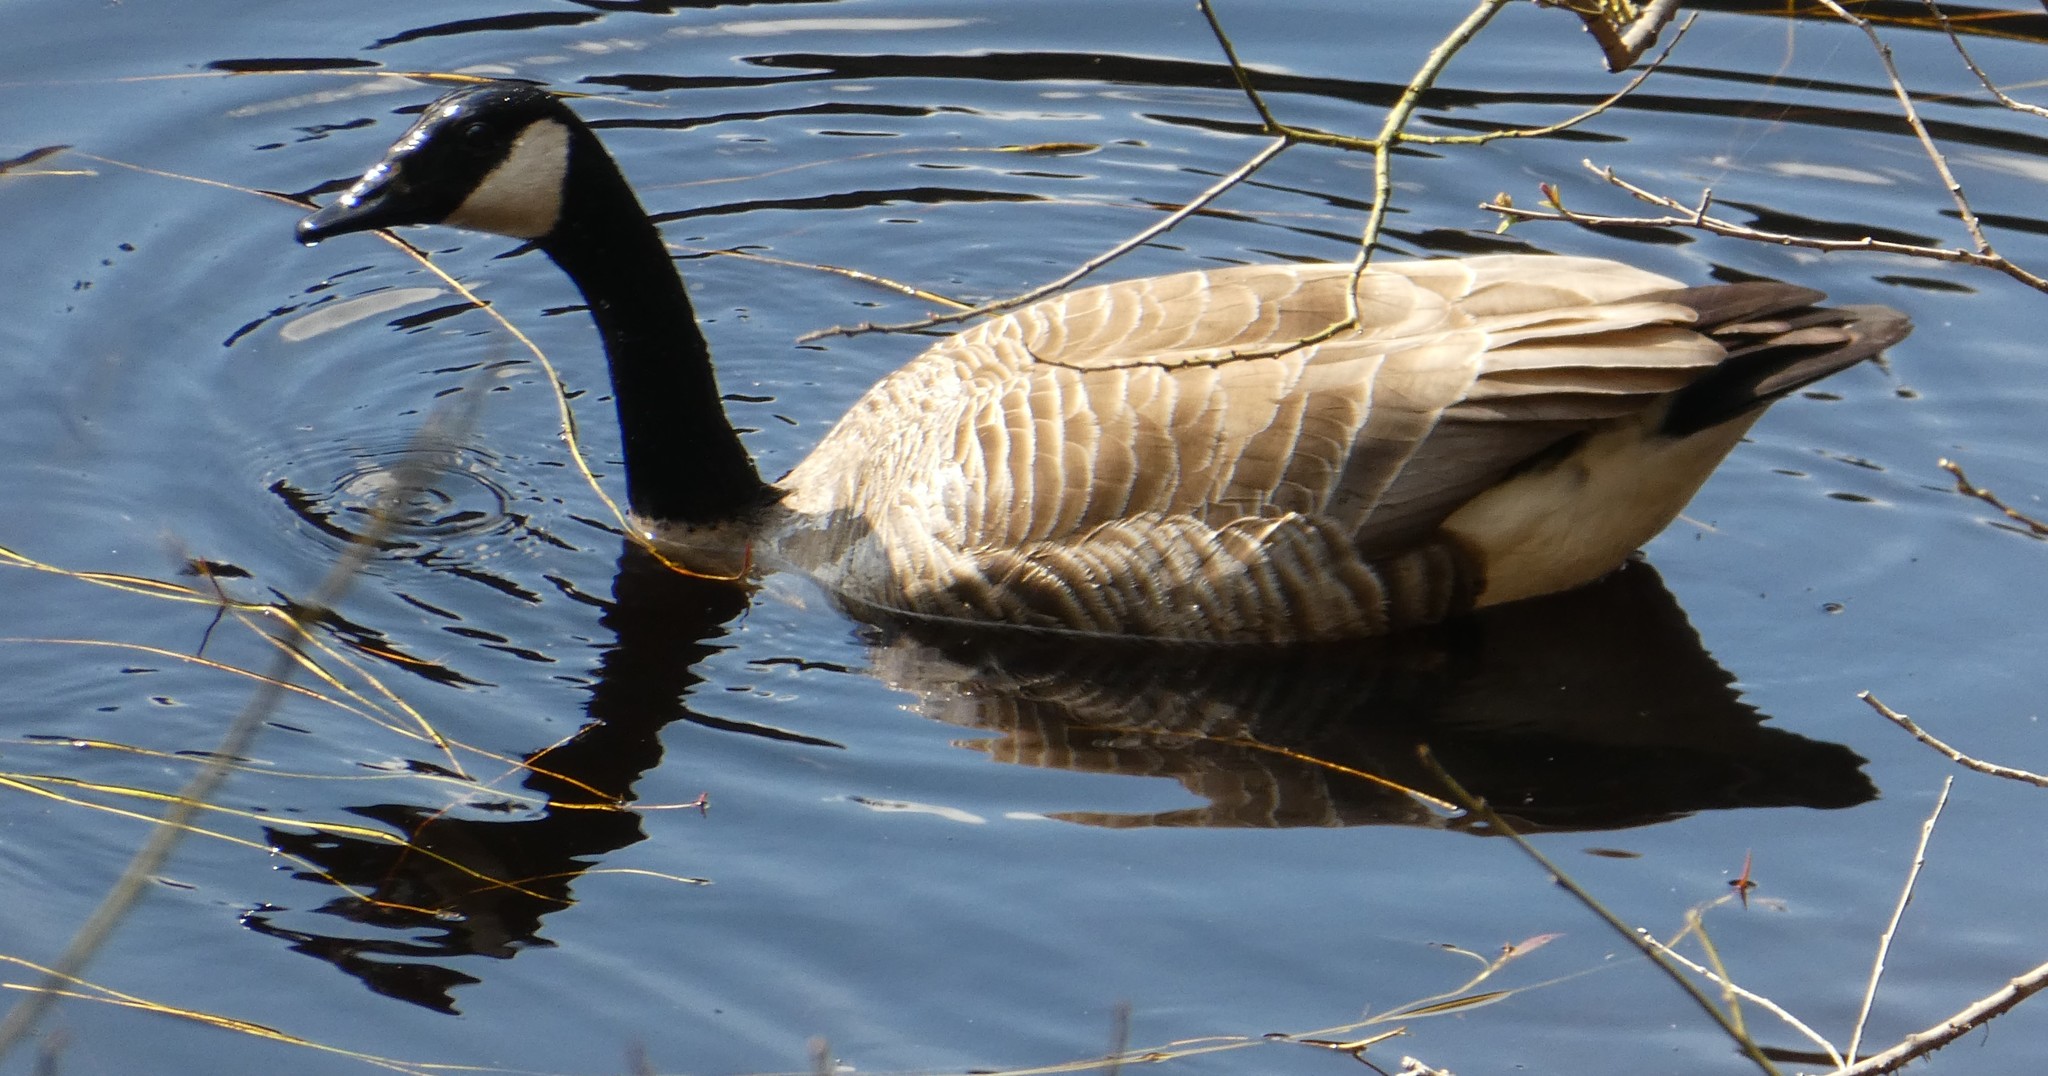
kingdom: Animalia
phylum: Chordata
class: Aves
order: Anseriformes
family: Anatidae
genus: Branta
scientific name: Branta canadensis
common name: Canada goose
